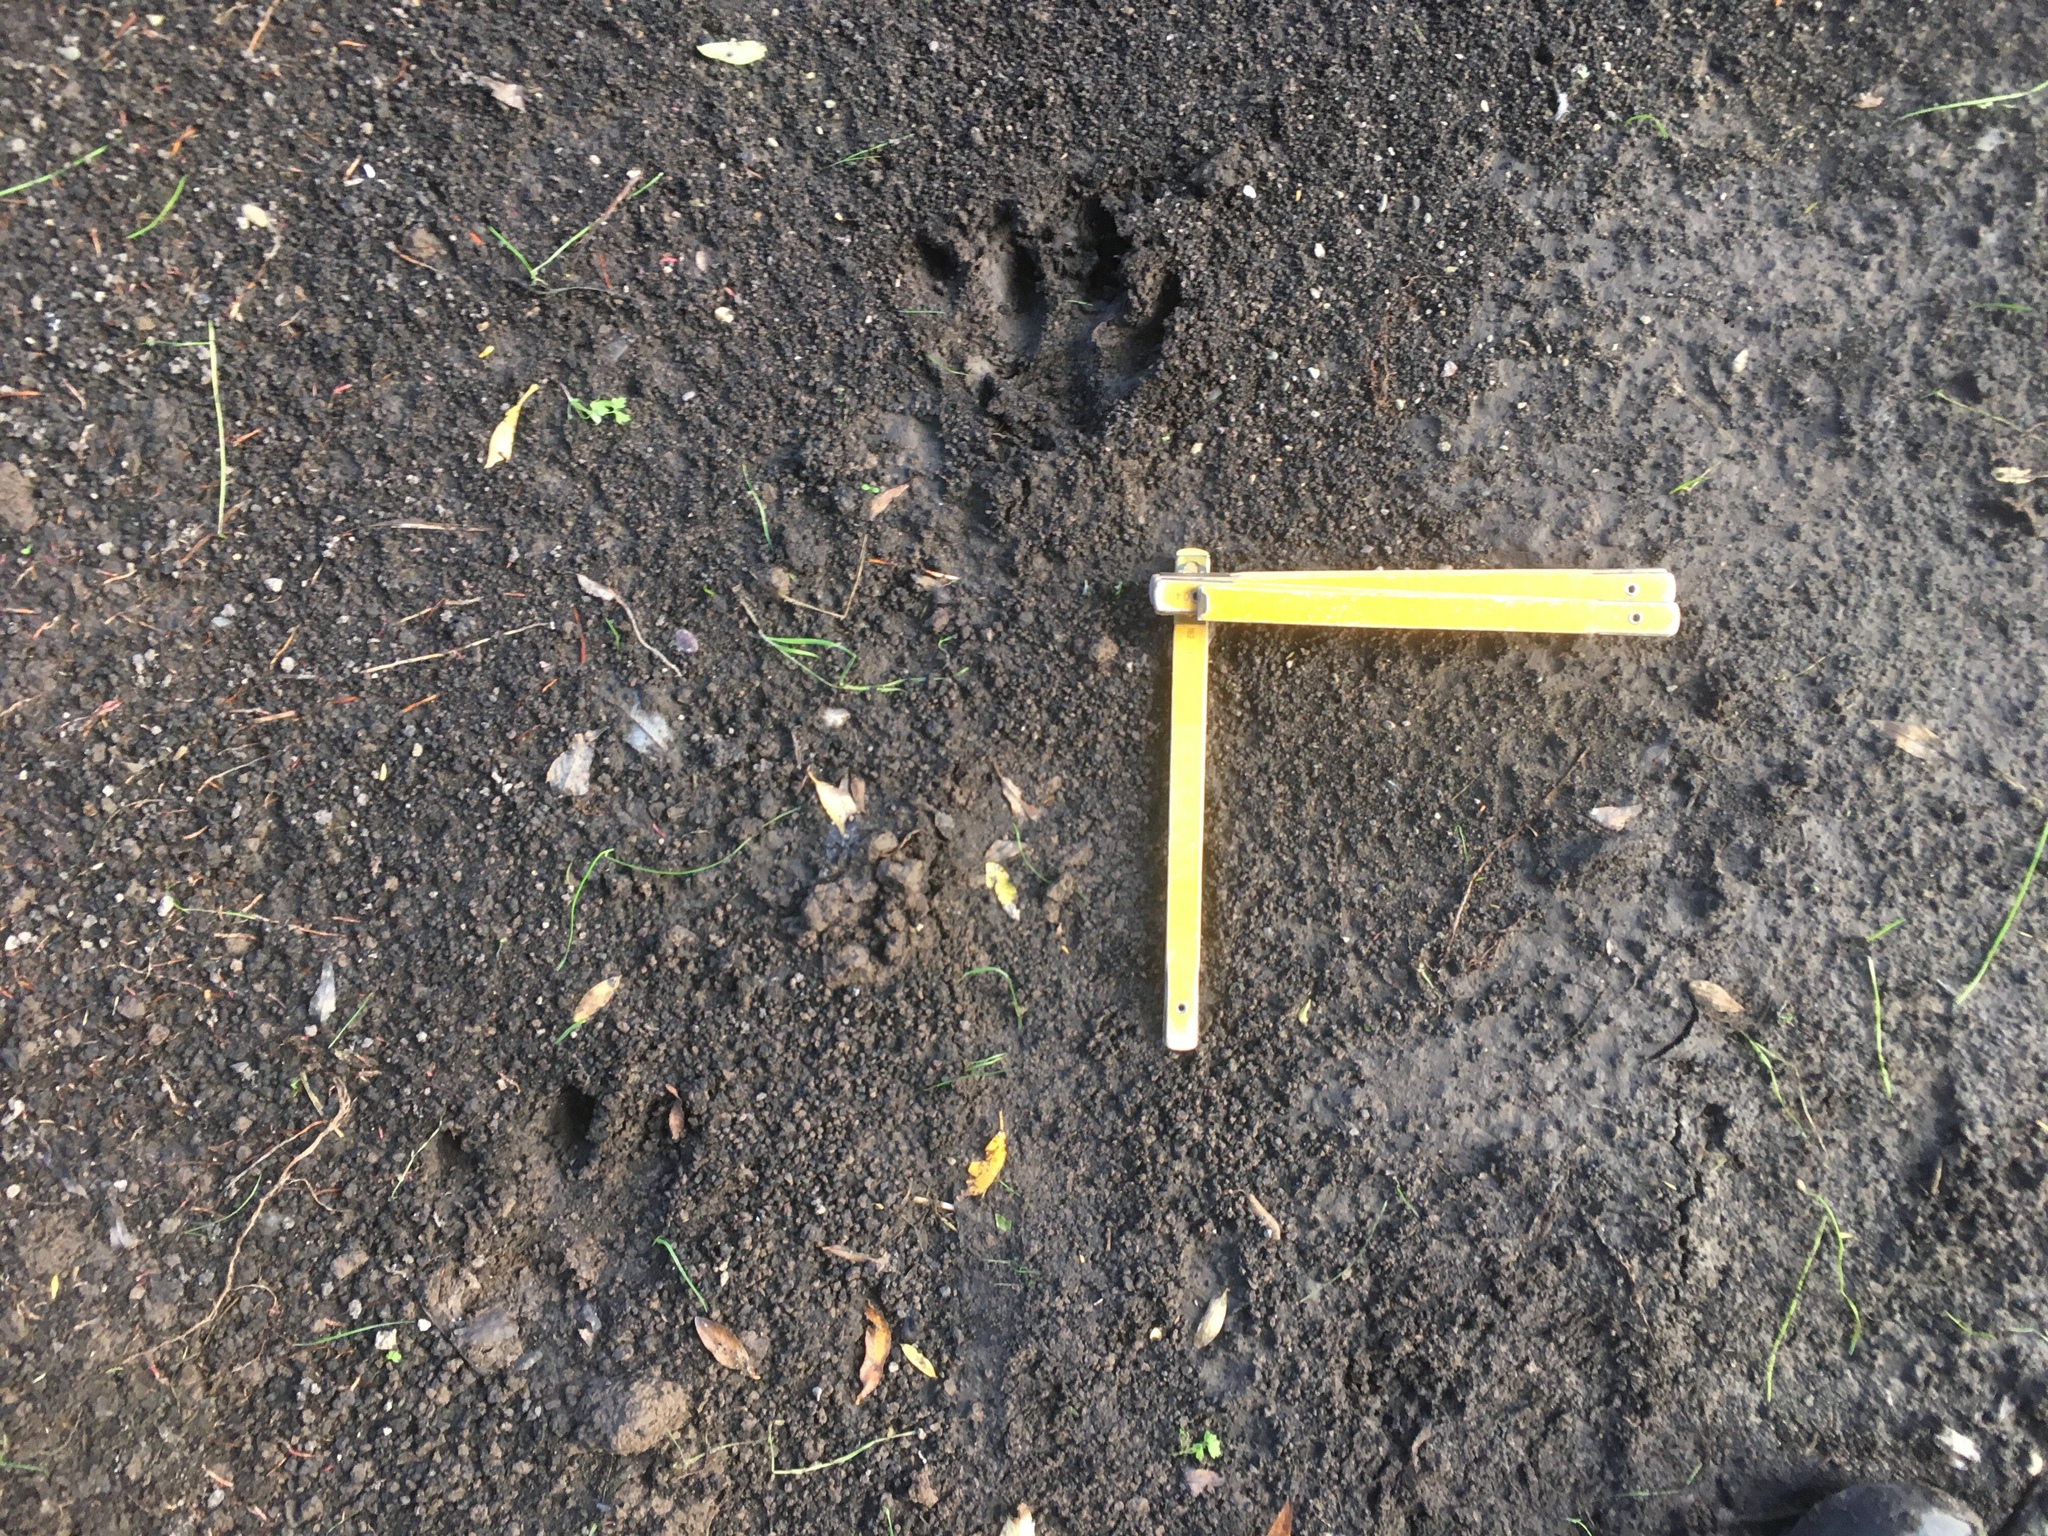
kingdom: Animalia
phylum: Chordata
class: Mammalia
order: Rodentia
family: Caviidae
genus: Hydrochoerus
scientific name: Hydrochoerus hydrochaeris
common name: Capybara
